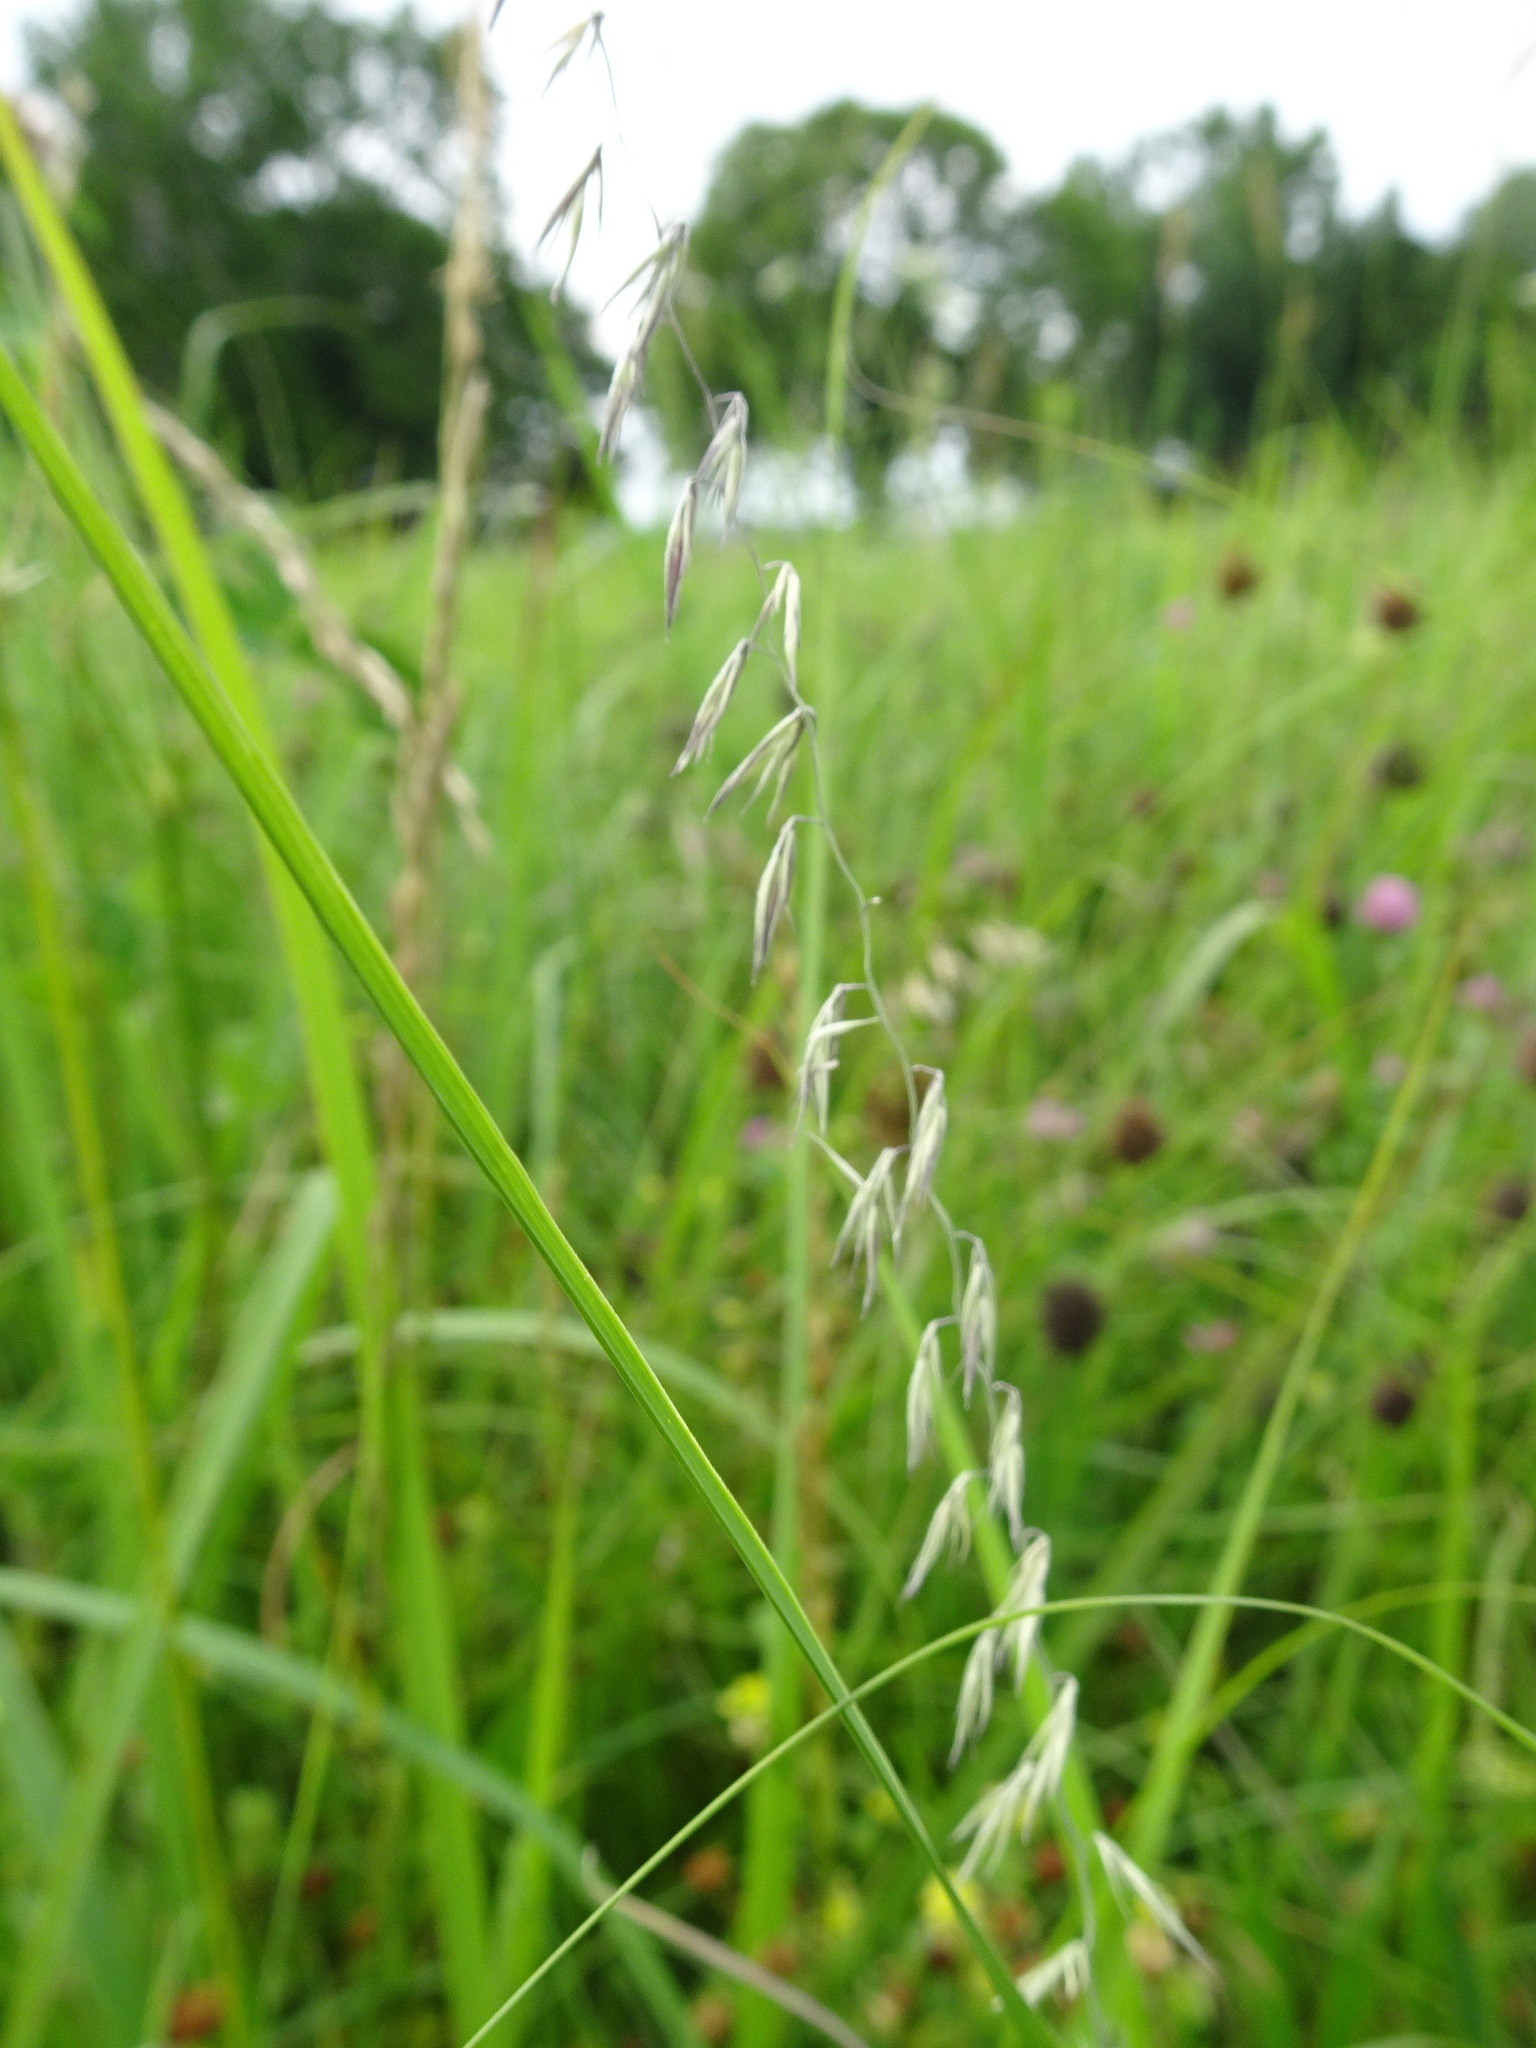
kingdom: Plantae
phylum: Tracheophyta
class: Liliopsida
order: Poales
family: Poaceae
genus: Bouteloua
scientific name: Bouteloua curtipendula
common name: Side-oats grama
